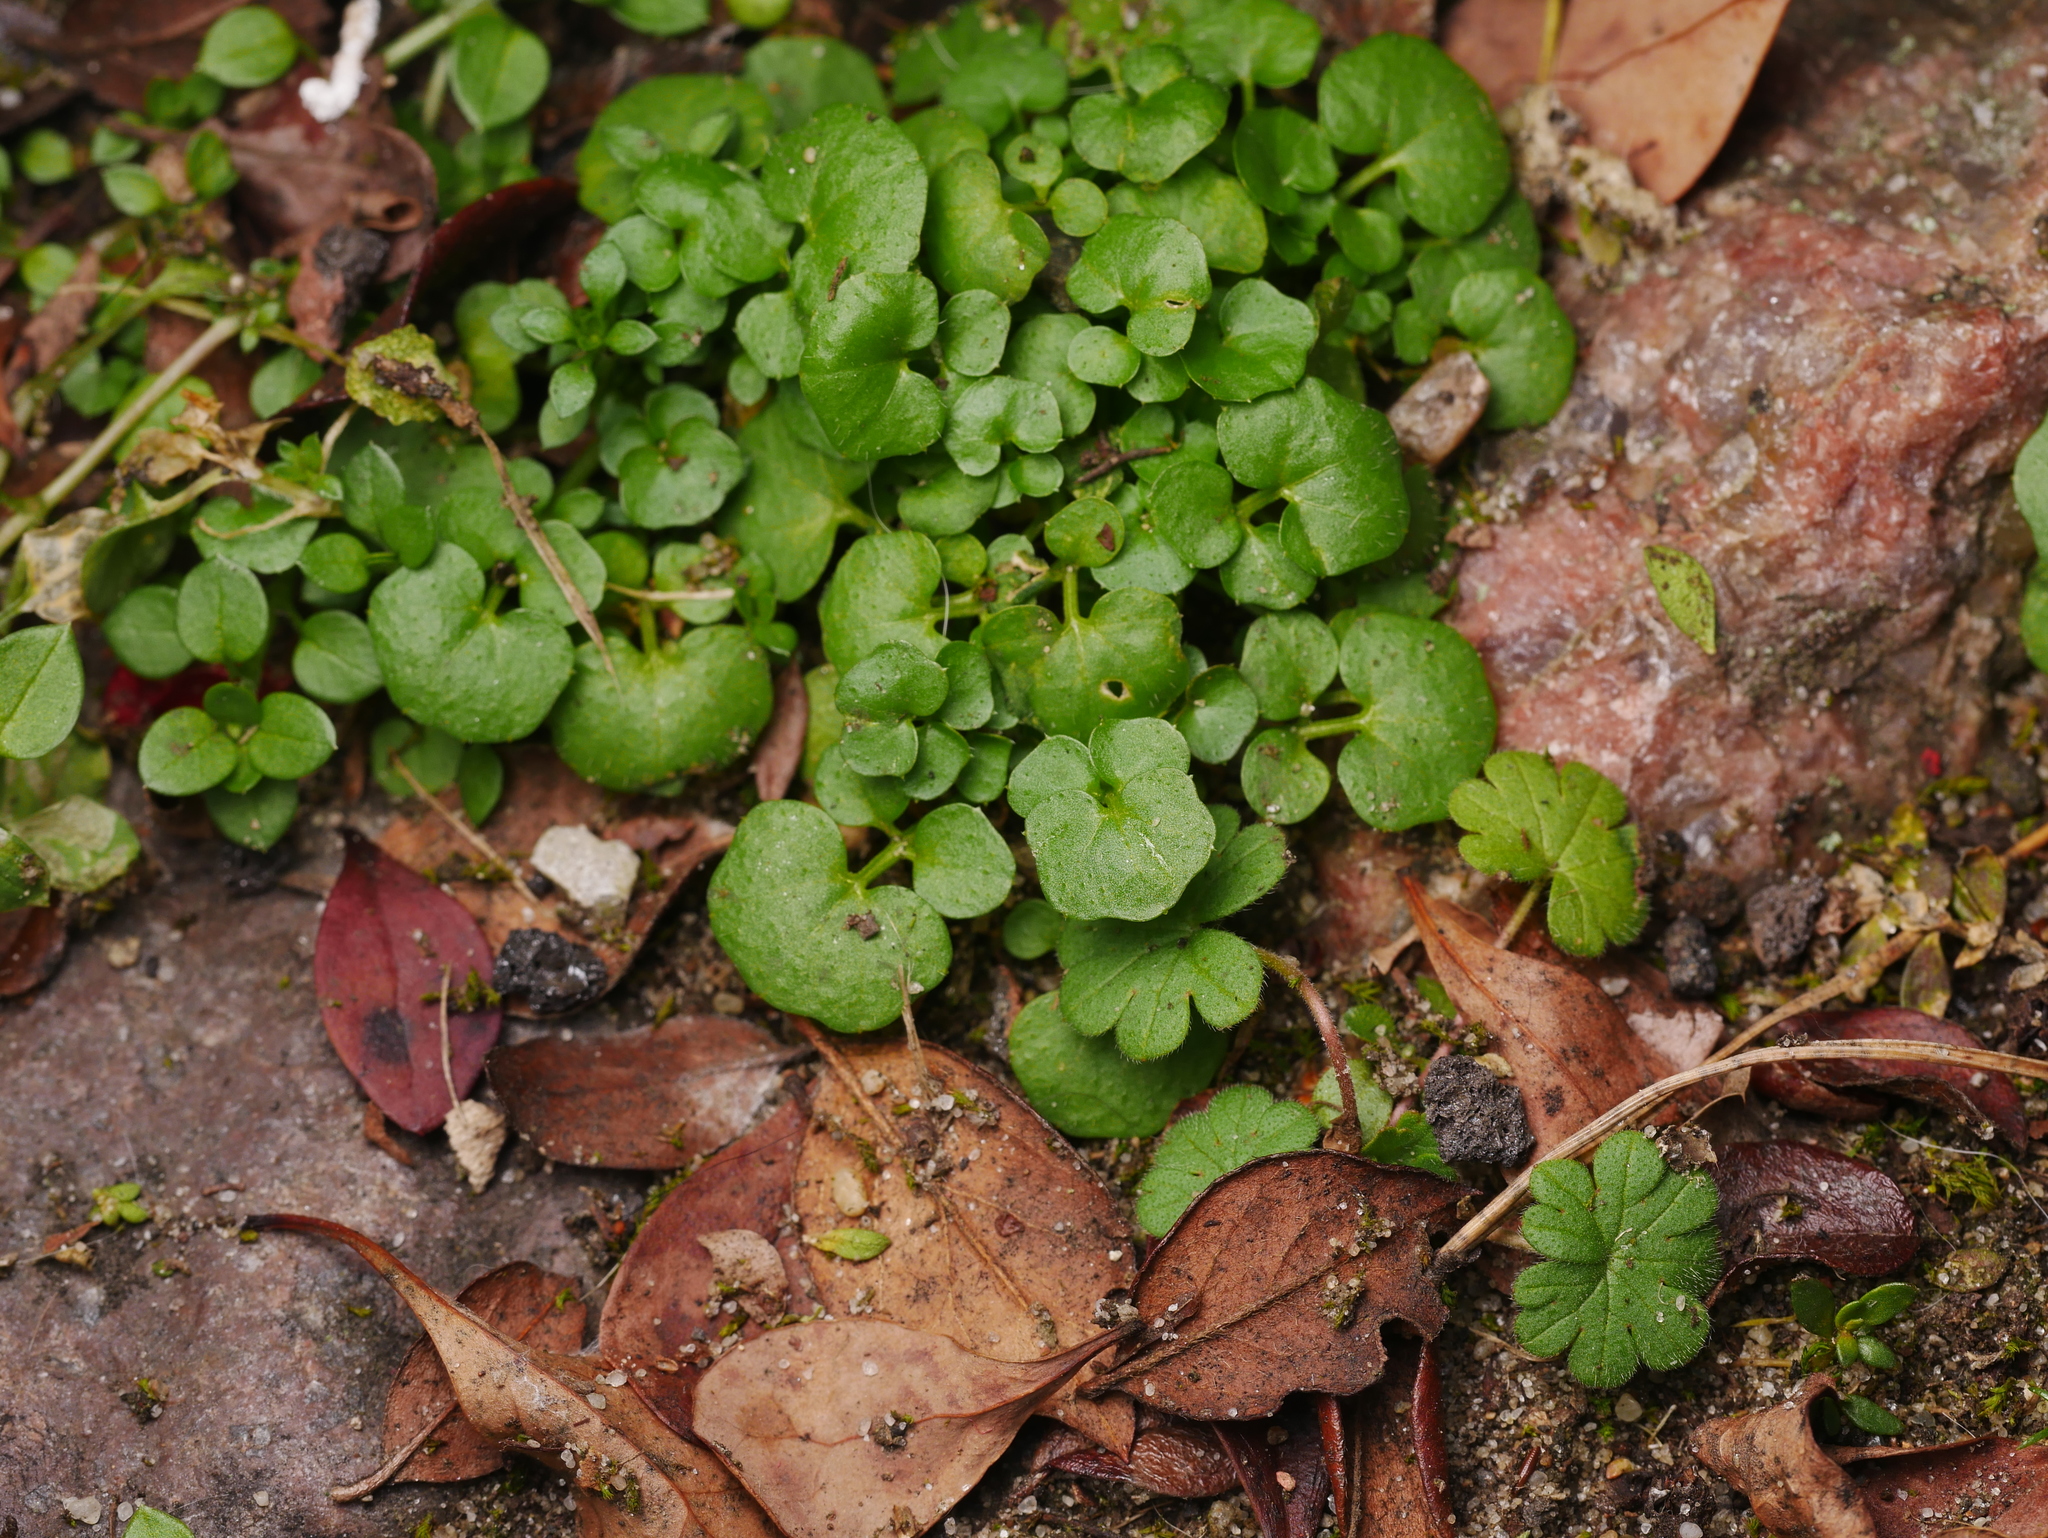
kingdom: Plantae
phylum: Tracheophyta
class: Magnoliopsida
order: Brassicales
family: Brassicaceae
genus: Cardamine
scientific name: Cardamine hirsuta
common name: Hairy bittercress
